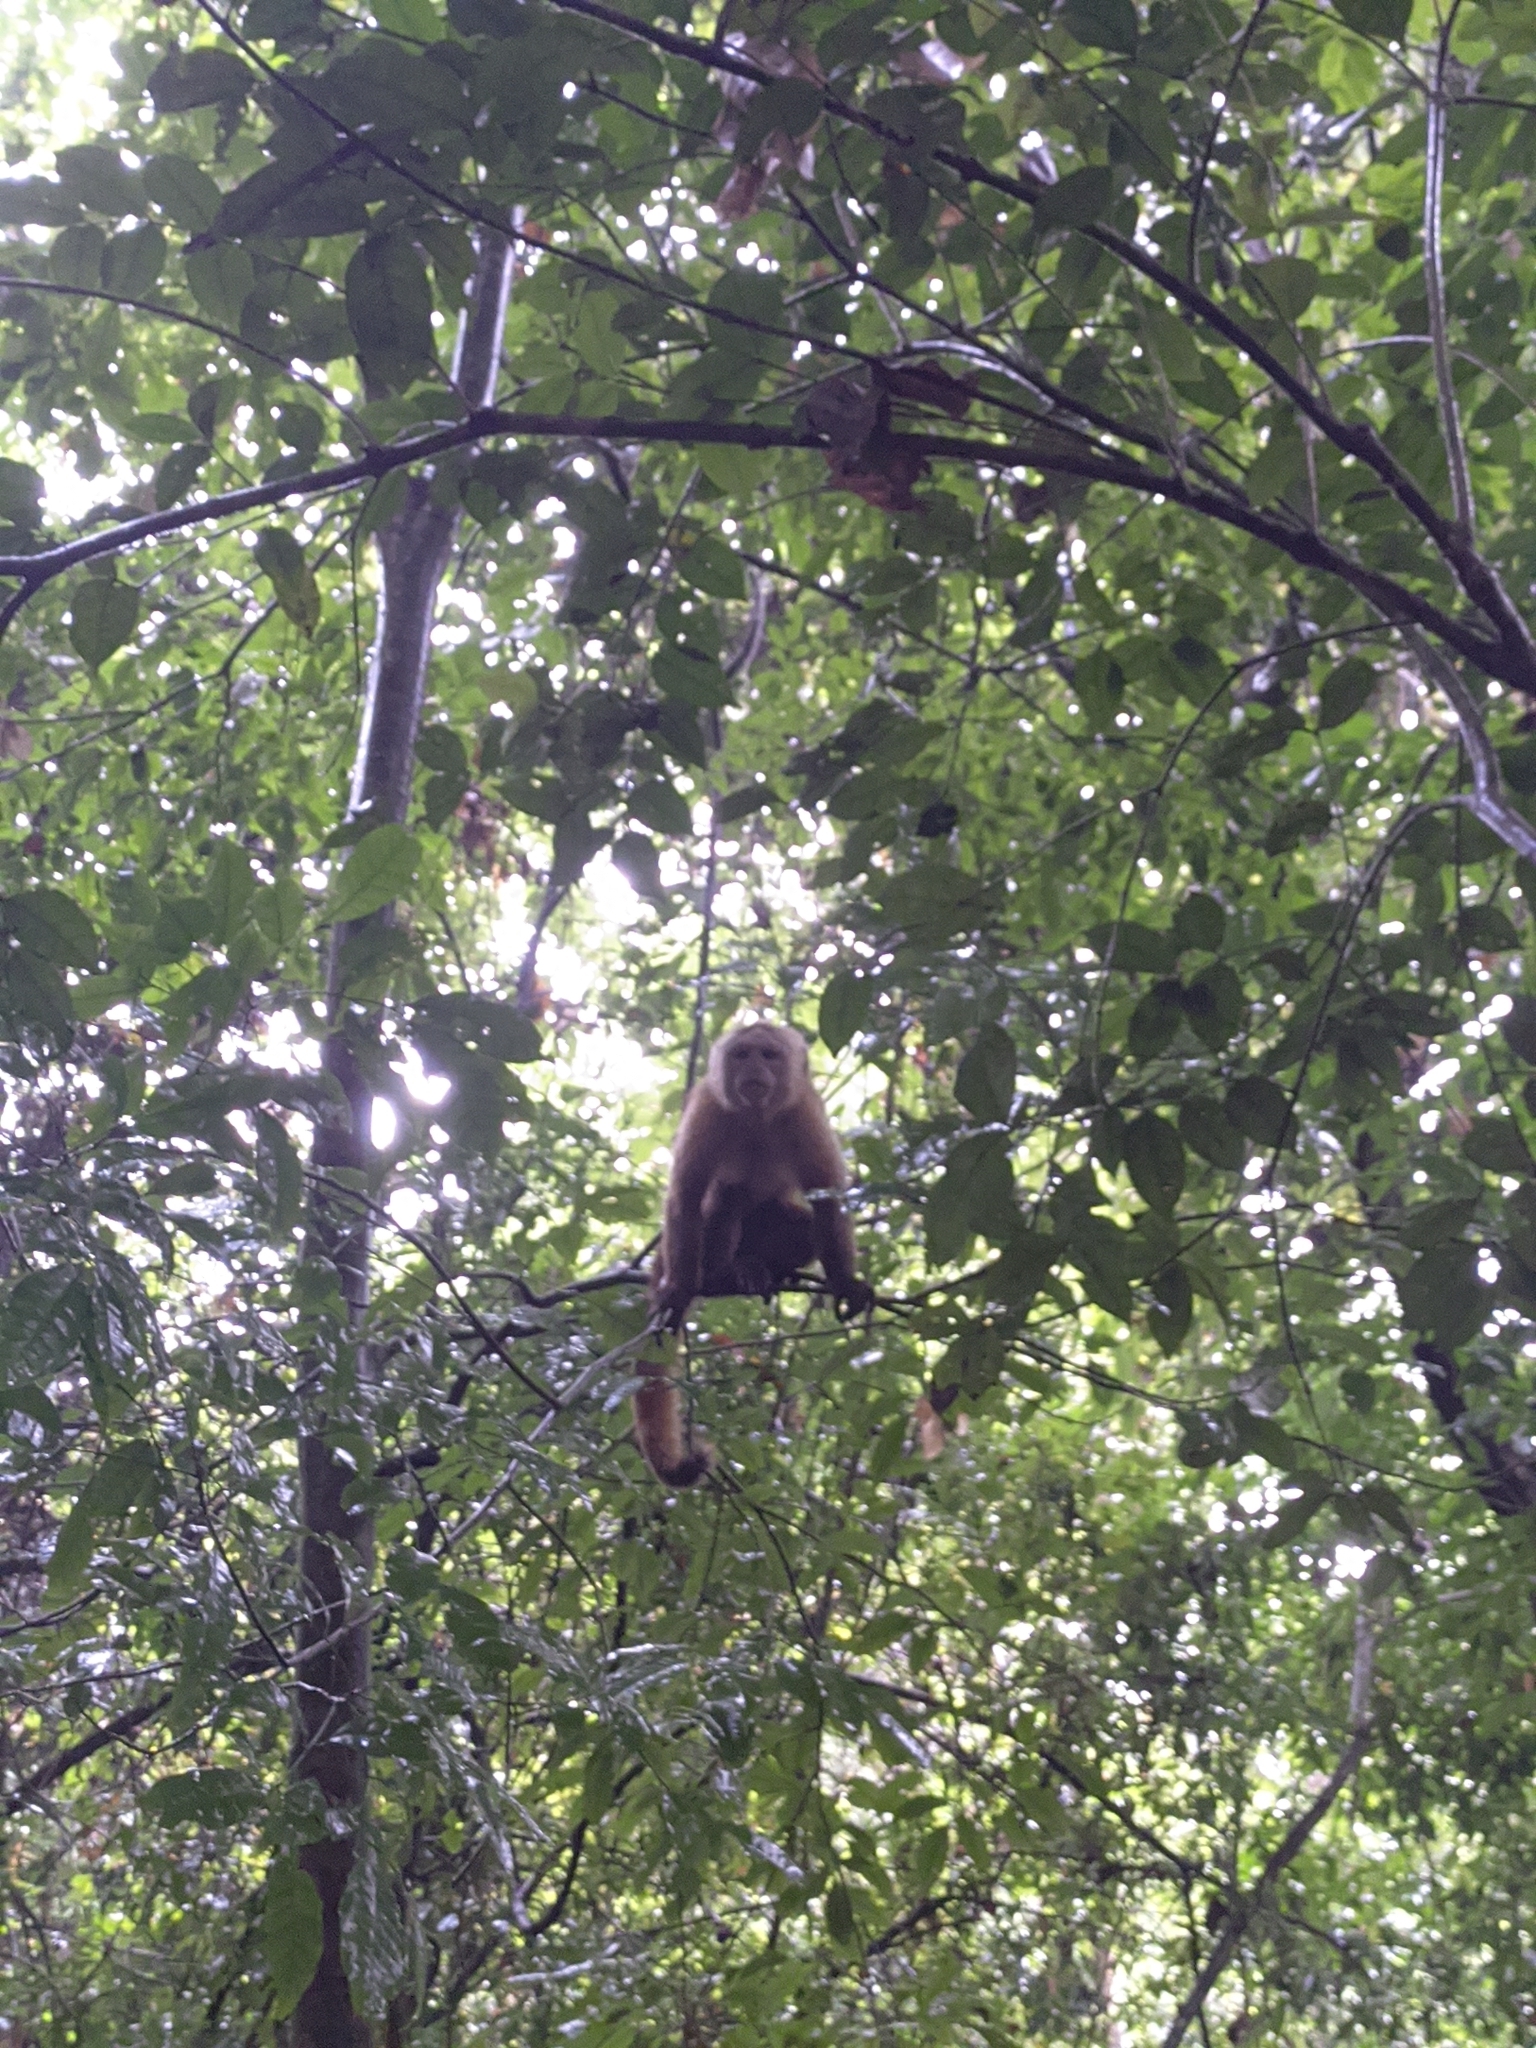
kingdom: Animalia
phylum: Chordata
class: Mammalia
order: Primates
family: Cebidae
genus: Cebus
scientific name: Cebus malitiosus
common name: Santa marta white-fronted capuchin
